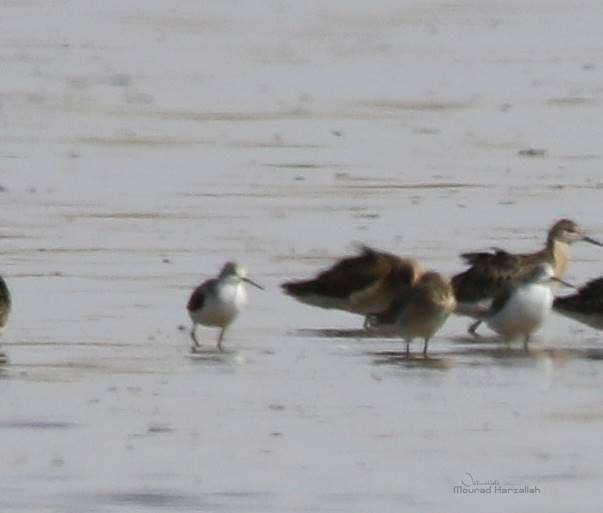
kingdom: Animalia
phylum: Chordata
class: Aves
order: Charadriiformes
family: Scolopacidae
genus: Tringa
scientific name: Tringa stagnatilis
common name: Marsh sandpiper
